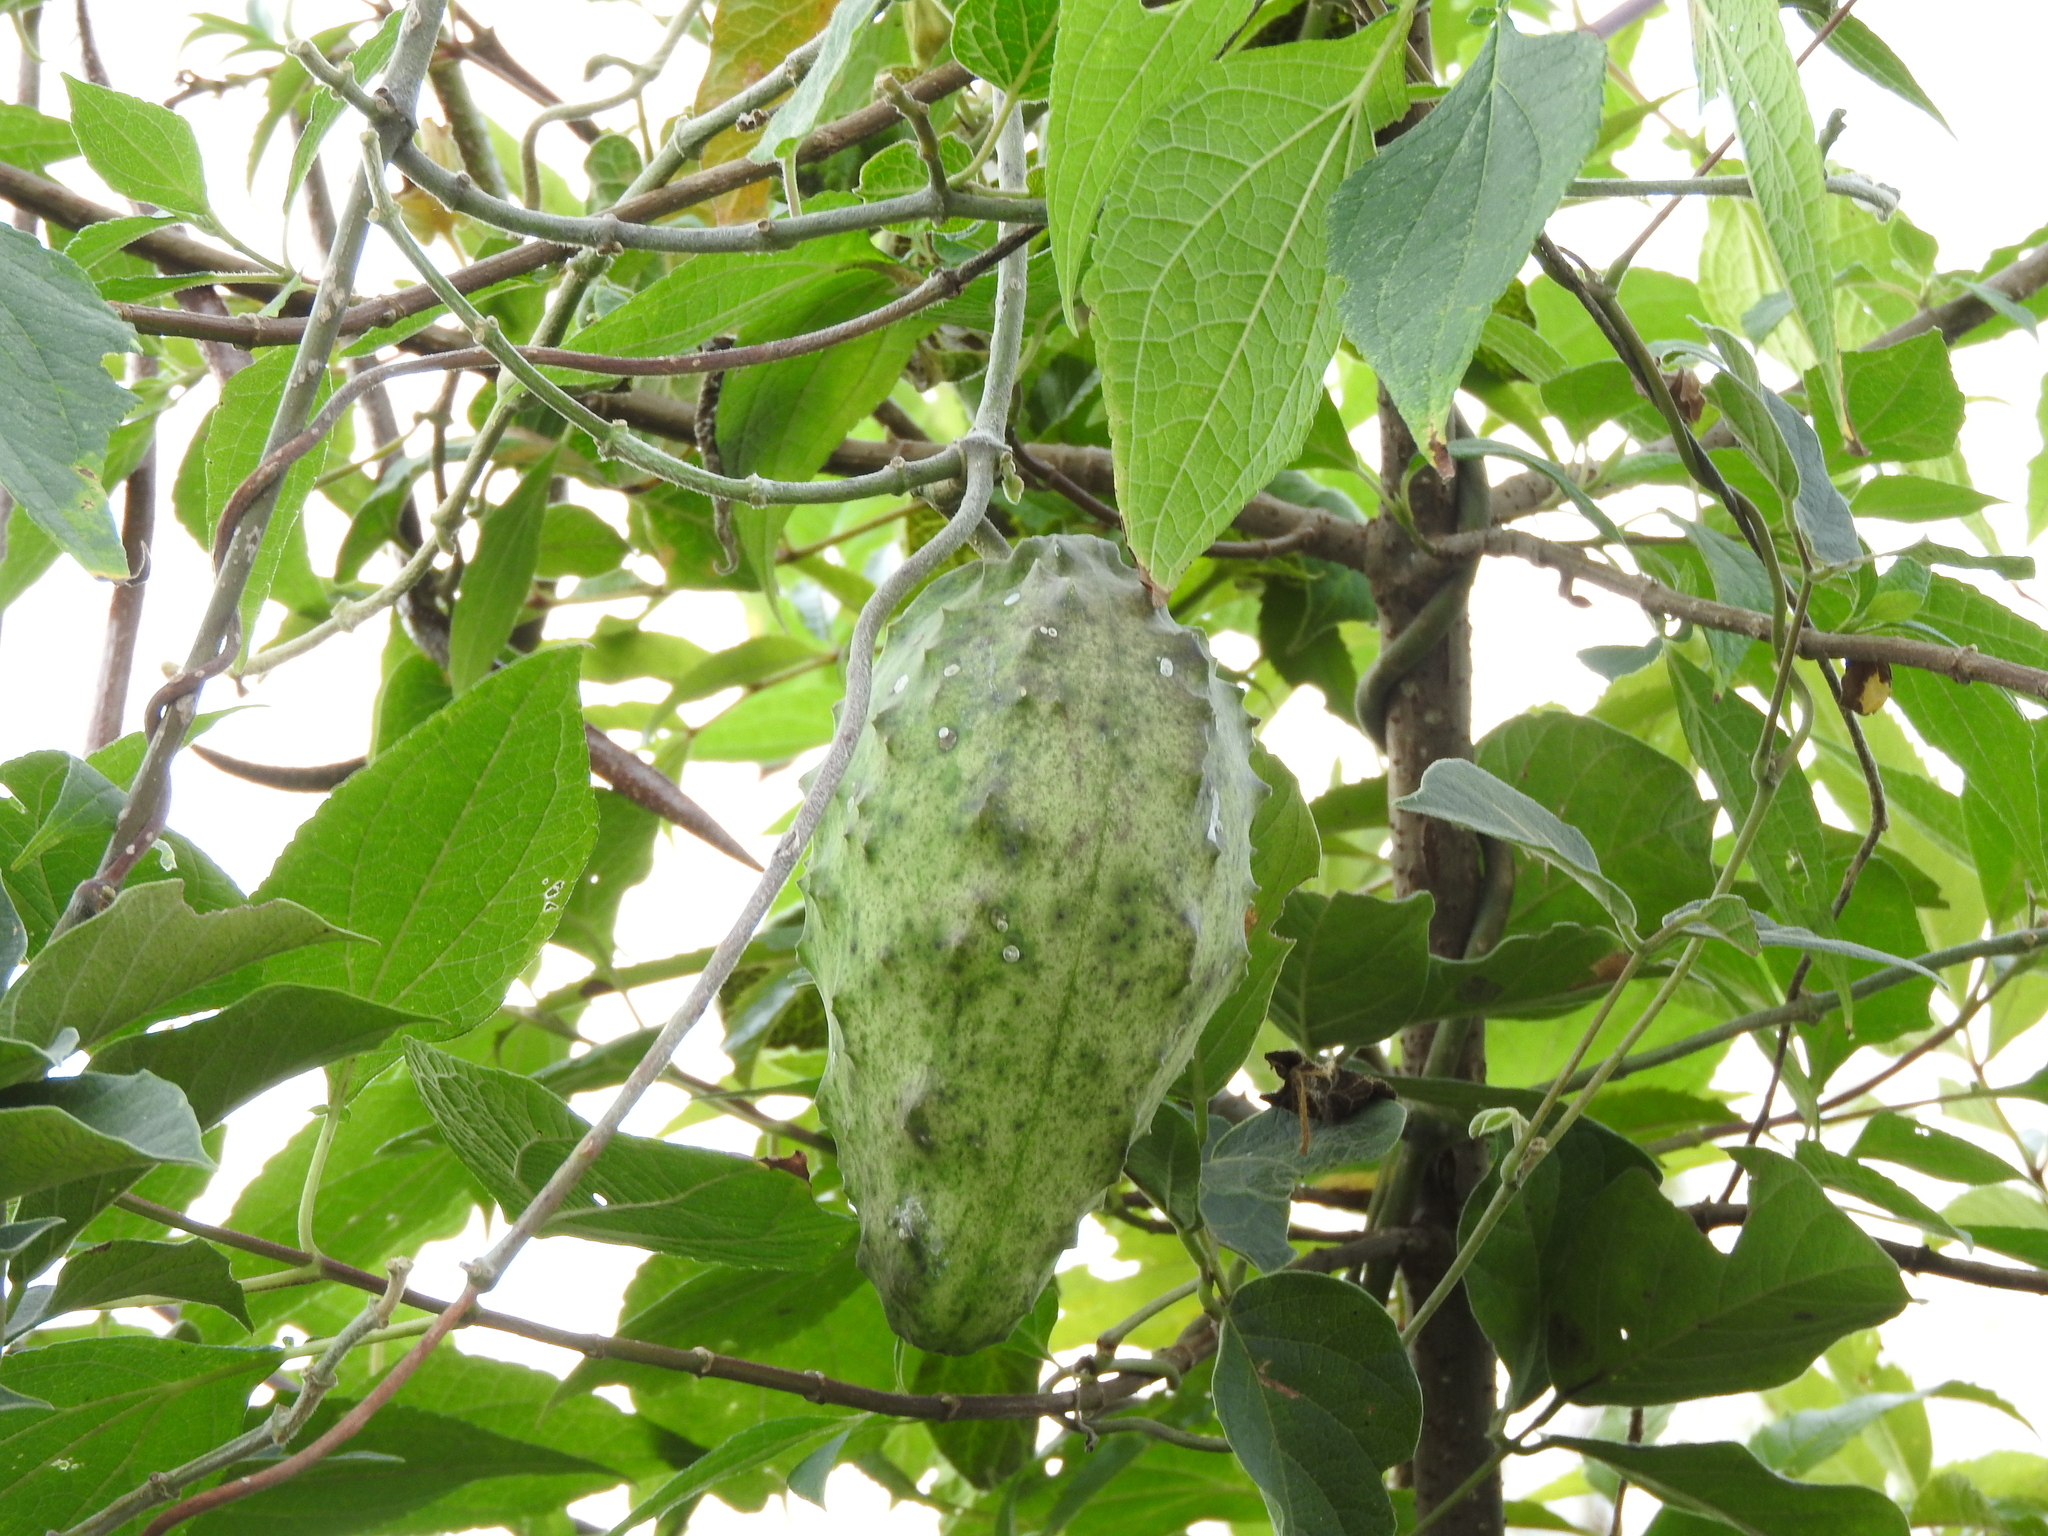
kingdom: Plantae
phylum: Tracheophyta
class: Magnoliopsida
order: Gentianales
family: Apocynaceae
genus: Gonolobus
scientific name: Gonolobus grandiflorus
